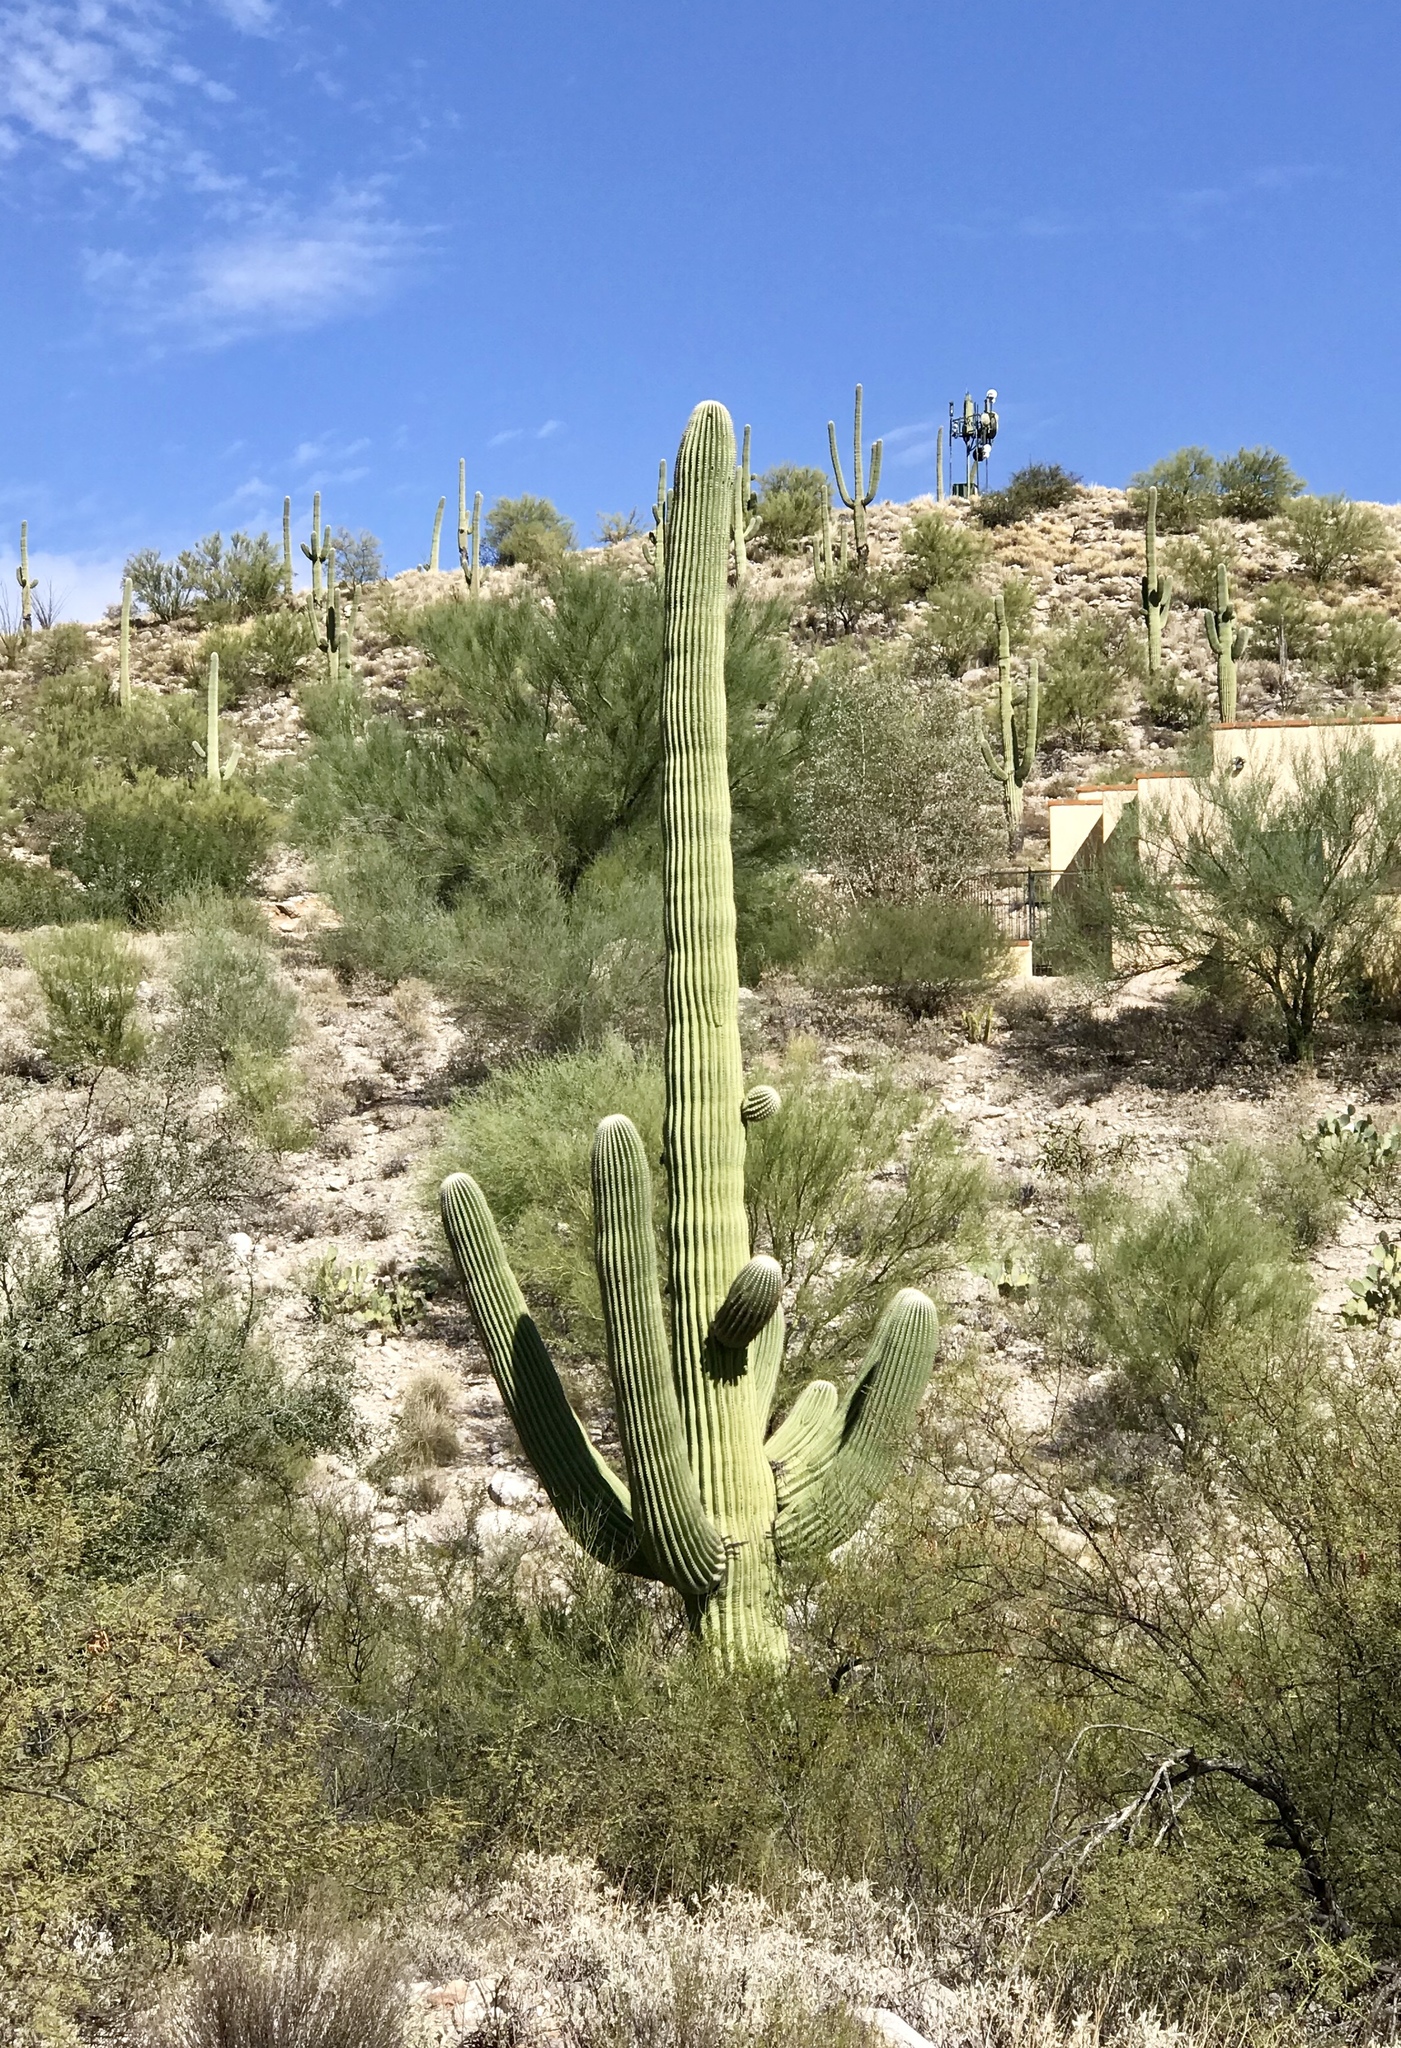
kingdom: Plantae
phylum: Tracheophyta
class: Magnoliopsida
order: Caryophyllales
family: Cactaceae
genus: Carnegiea
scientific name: Carnegiea gigantea
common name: Saguaro
